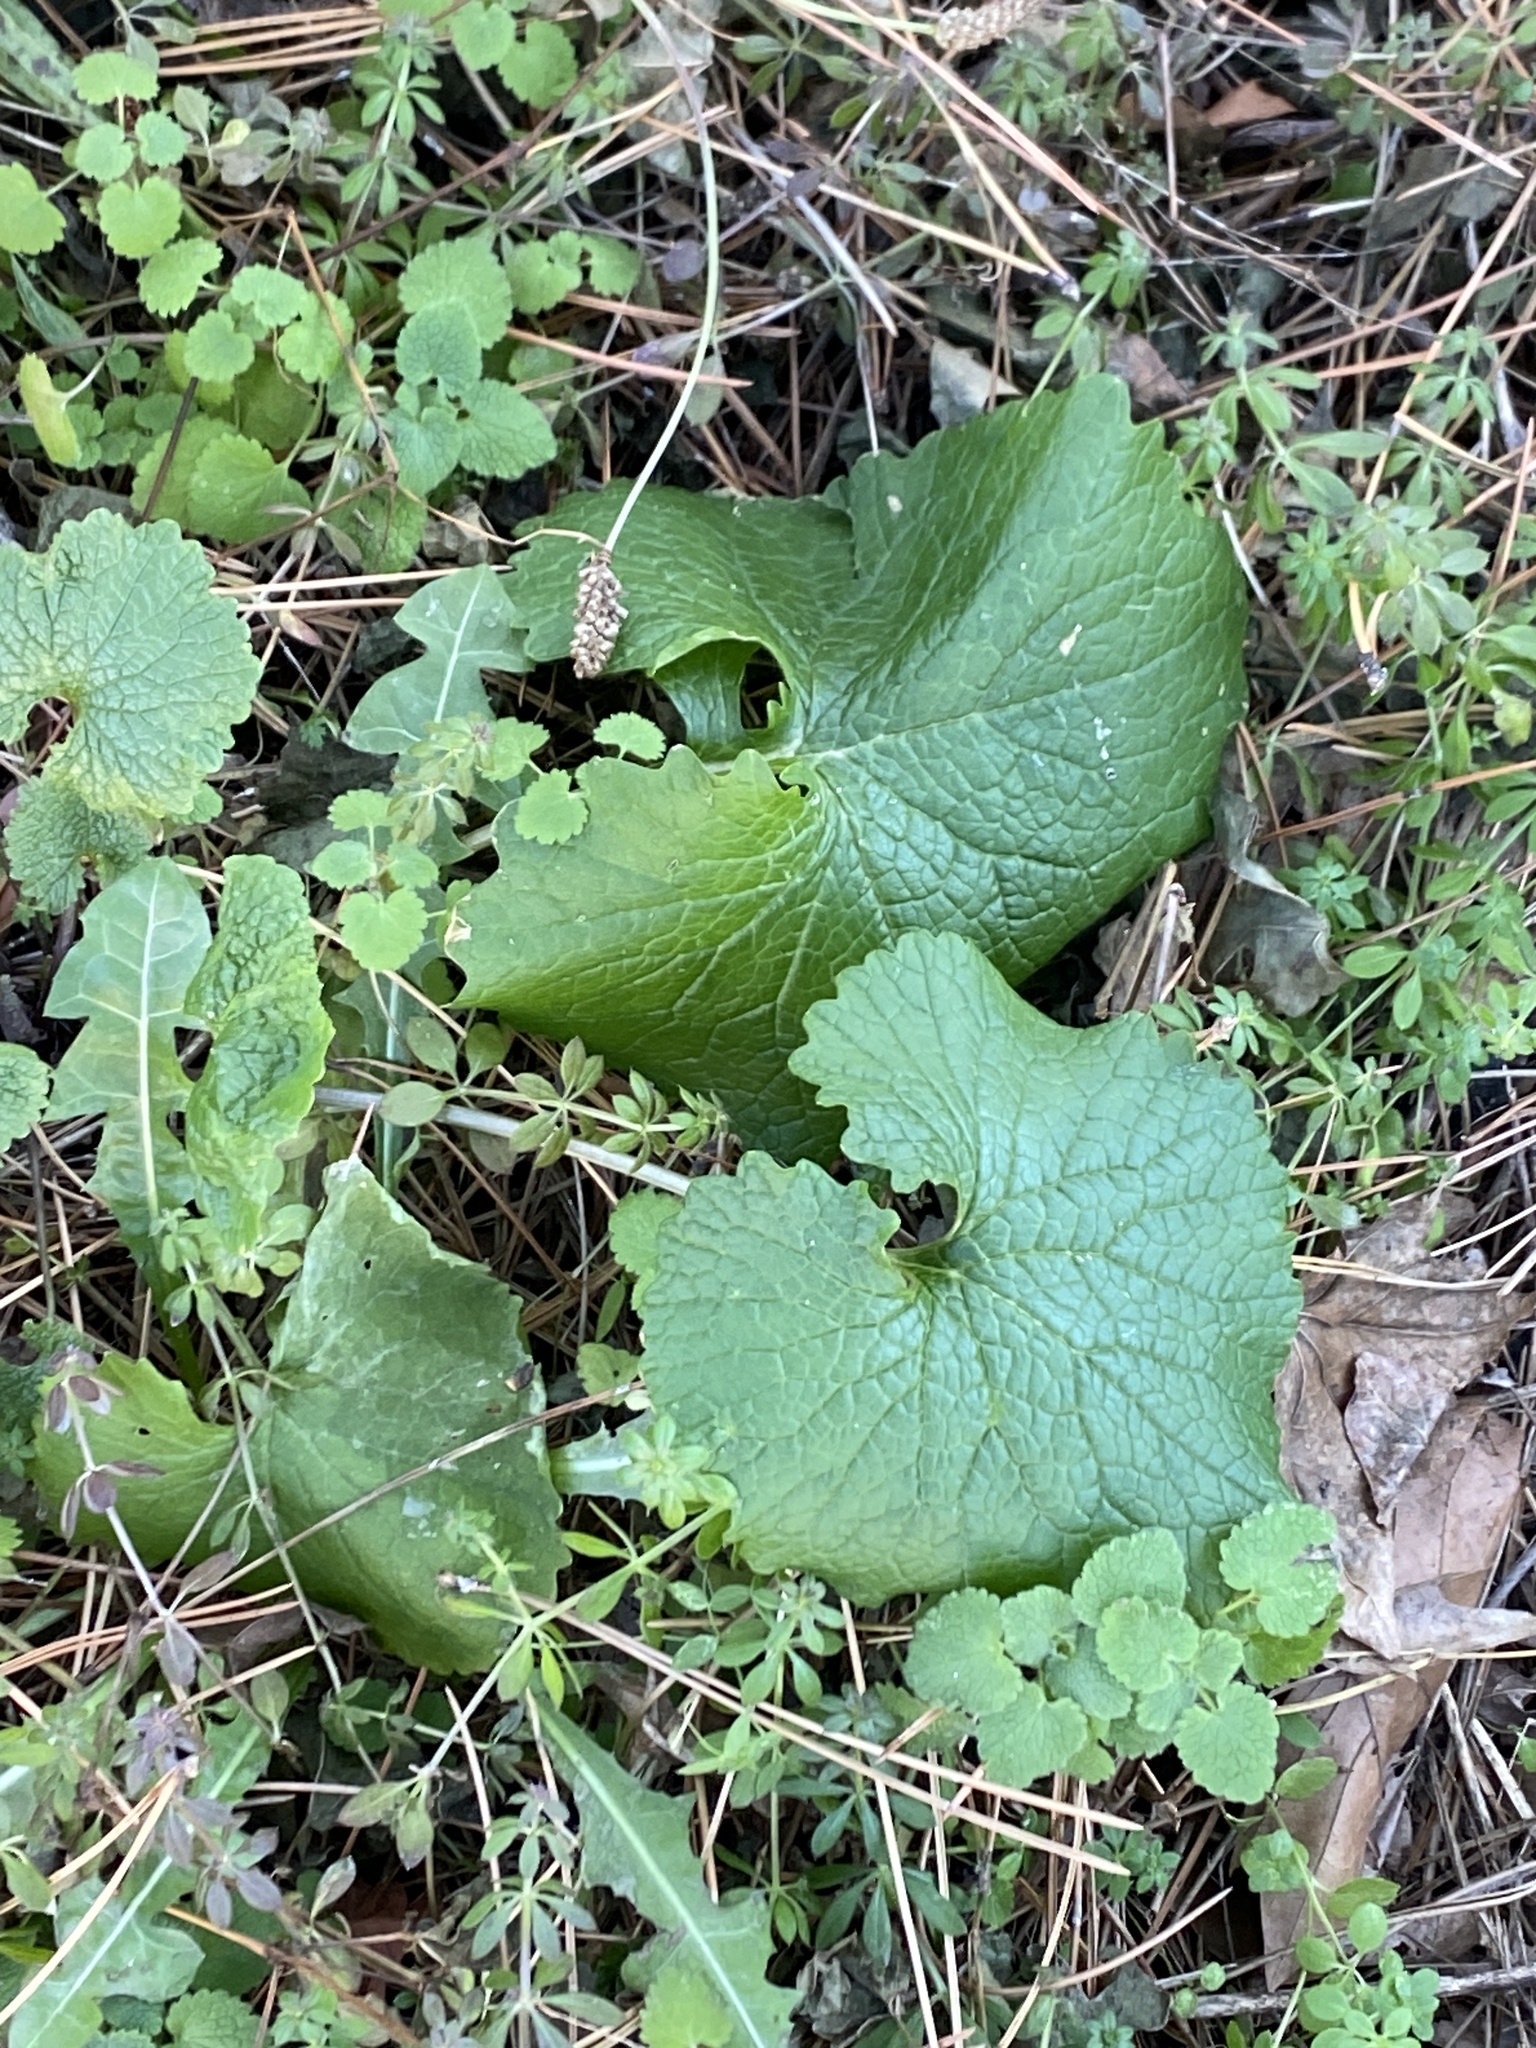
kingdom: Plantae
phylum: Tracheophyta
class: Magnoliopsida
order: Brassicales
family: Brassicaceae
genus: Alliaria
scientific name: Alliaria petiolata
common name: Garlic mustard
